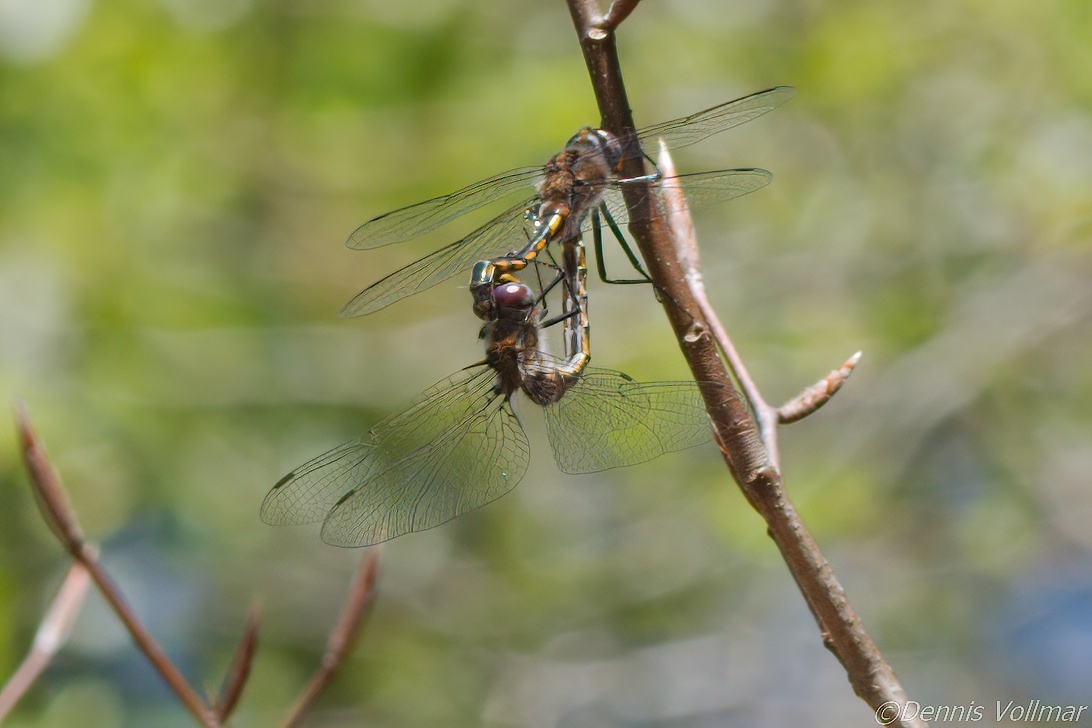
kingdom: Animalia
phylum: Arthropoda
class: Insecta
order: Odonata
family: Corduliidae
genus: Epitheca
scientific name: Epitheca cynosura
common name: Common baskettail
